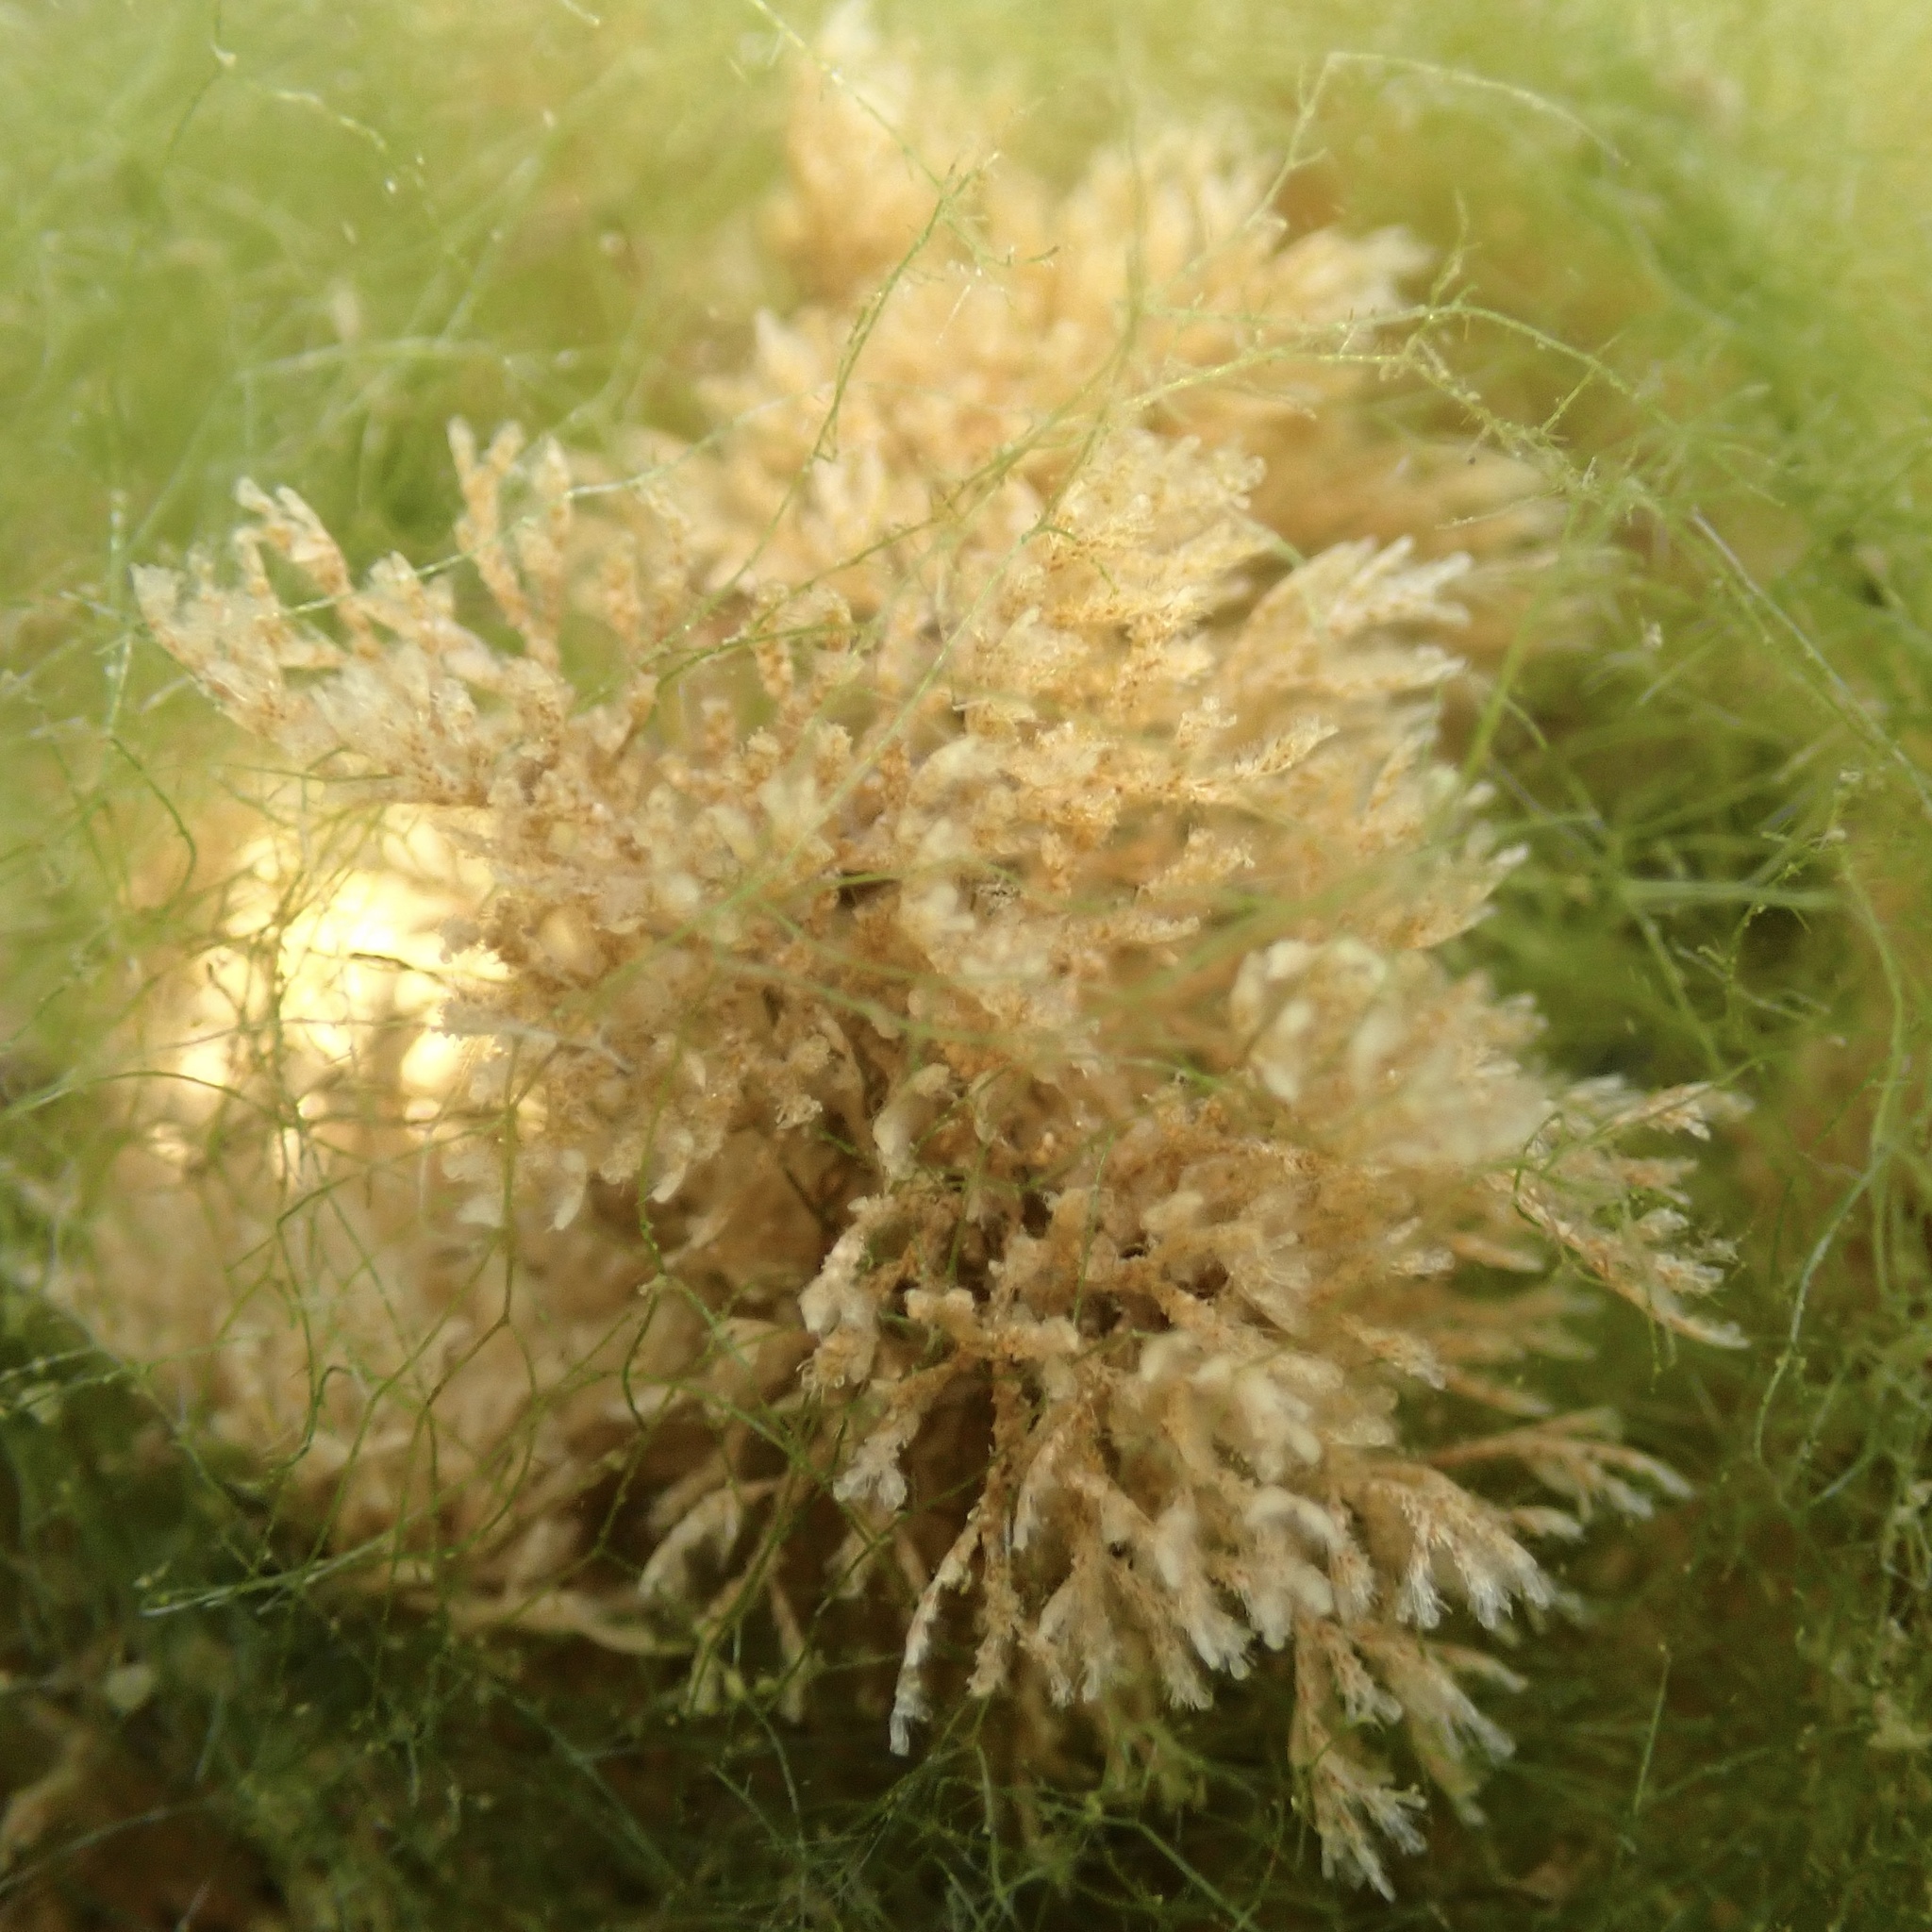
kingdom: Animalia
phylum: Bryozoa
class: Gymnolaemata
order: Cheilostomatida
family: Bugulidae
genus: Bugulina
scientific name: Bugulina stolonifera
